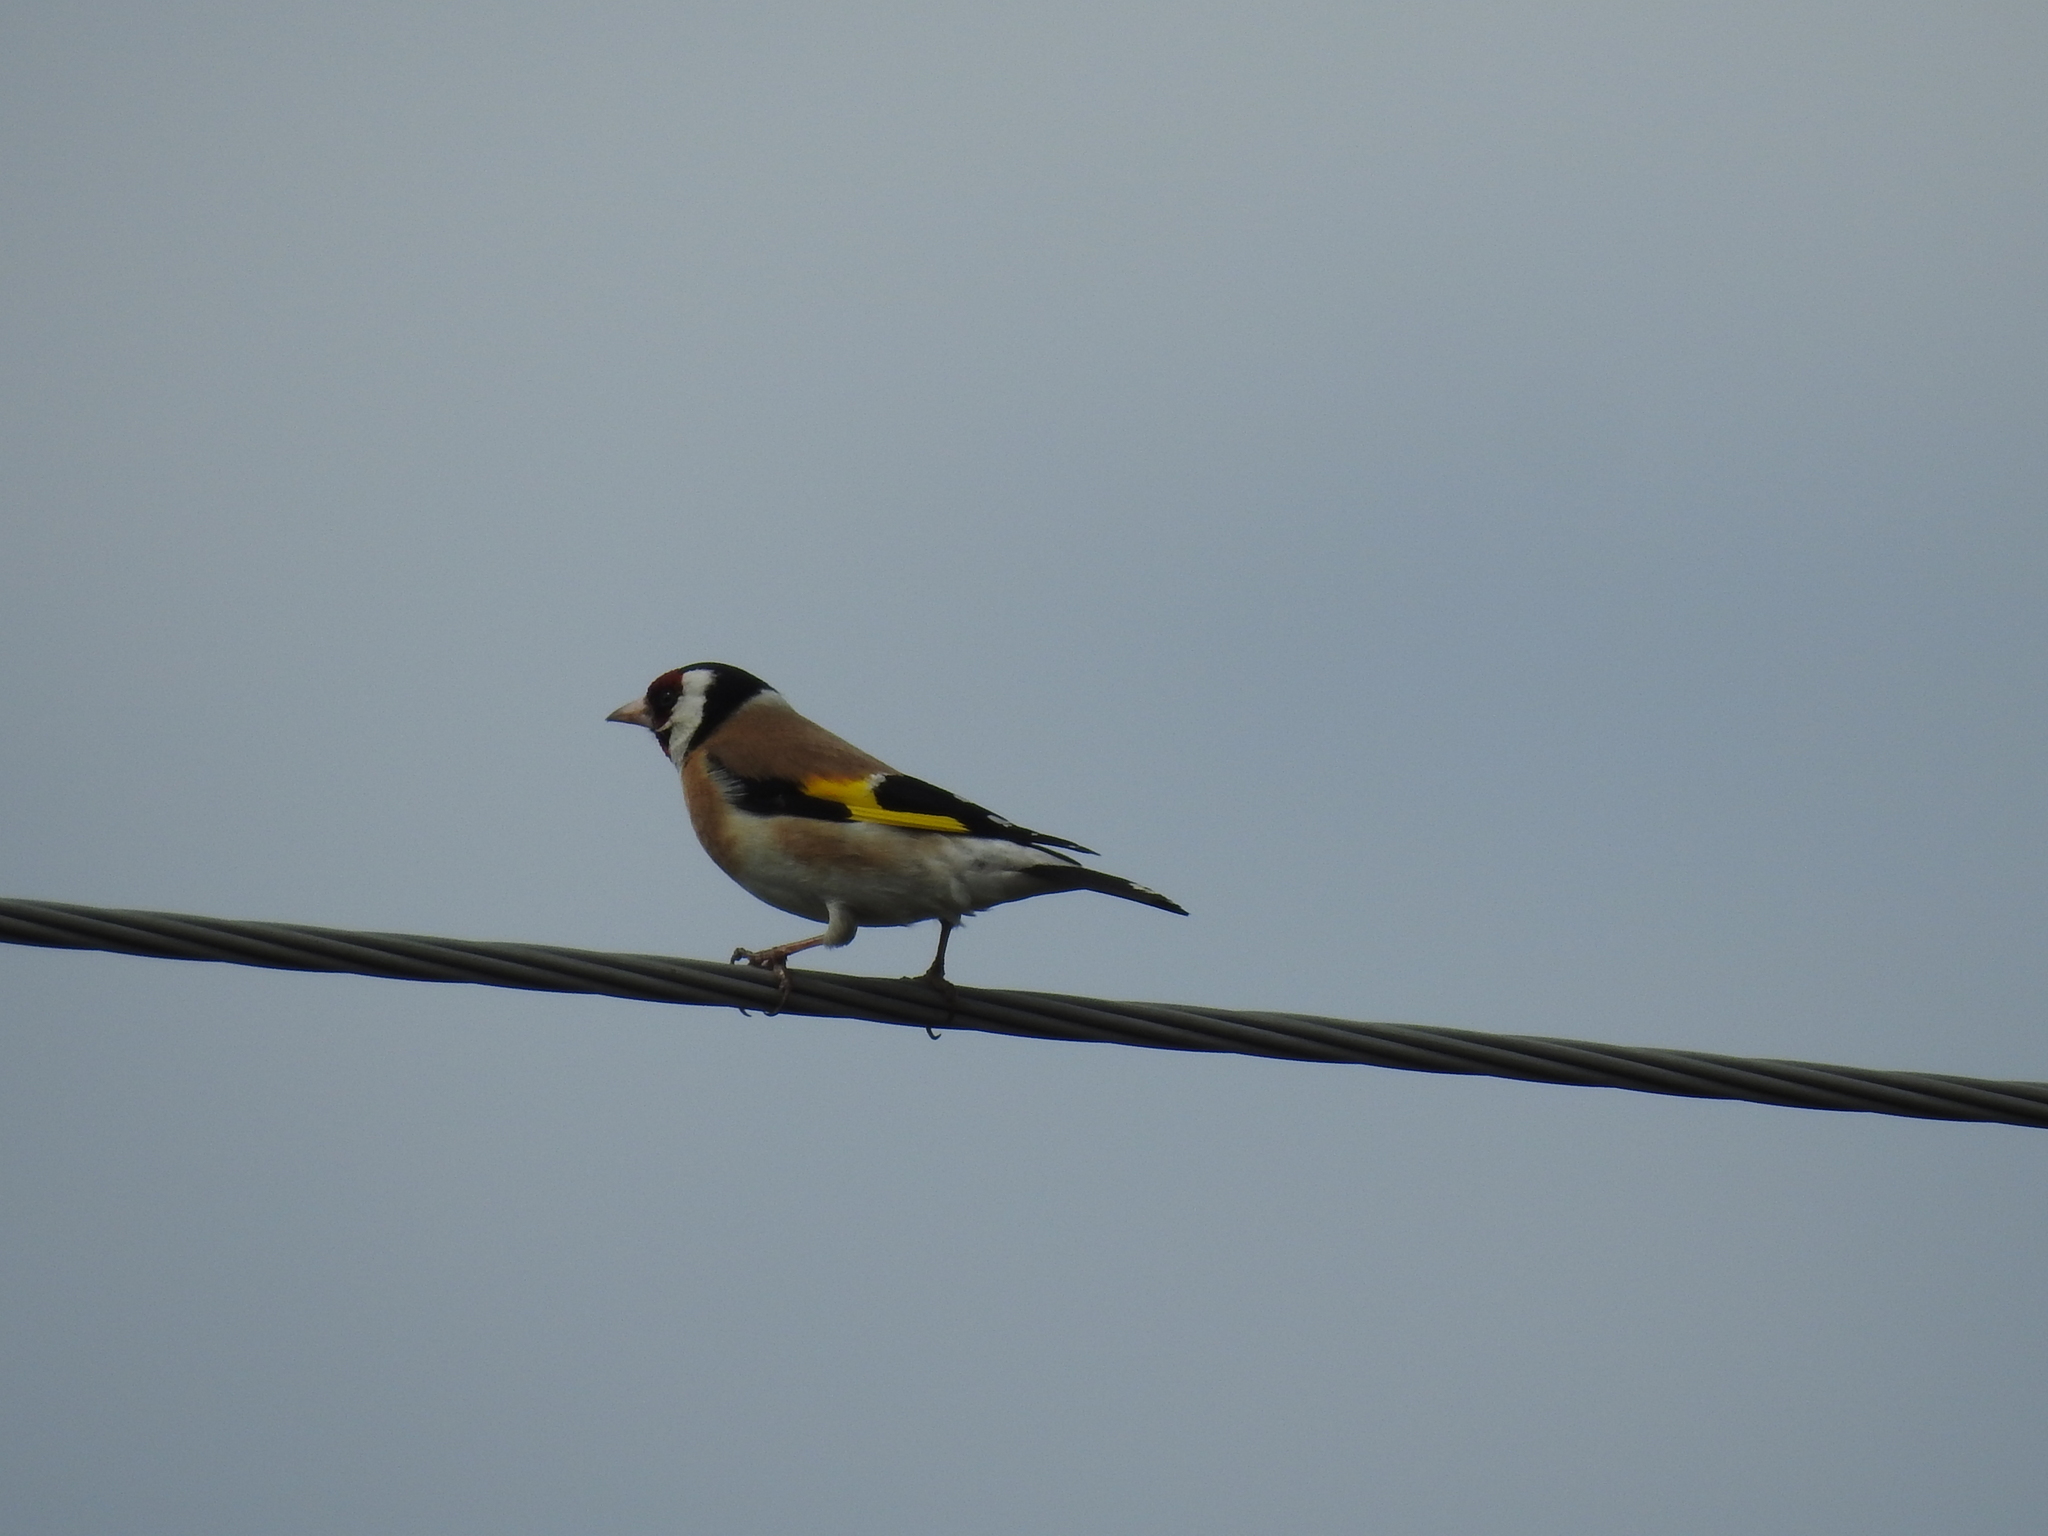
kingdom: Animalia
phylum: Chordata
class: Aves
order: Passeriformes
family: Fringillidae
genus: Carduelis
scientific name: Carduelis carduelis
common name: European goldfinch
